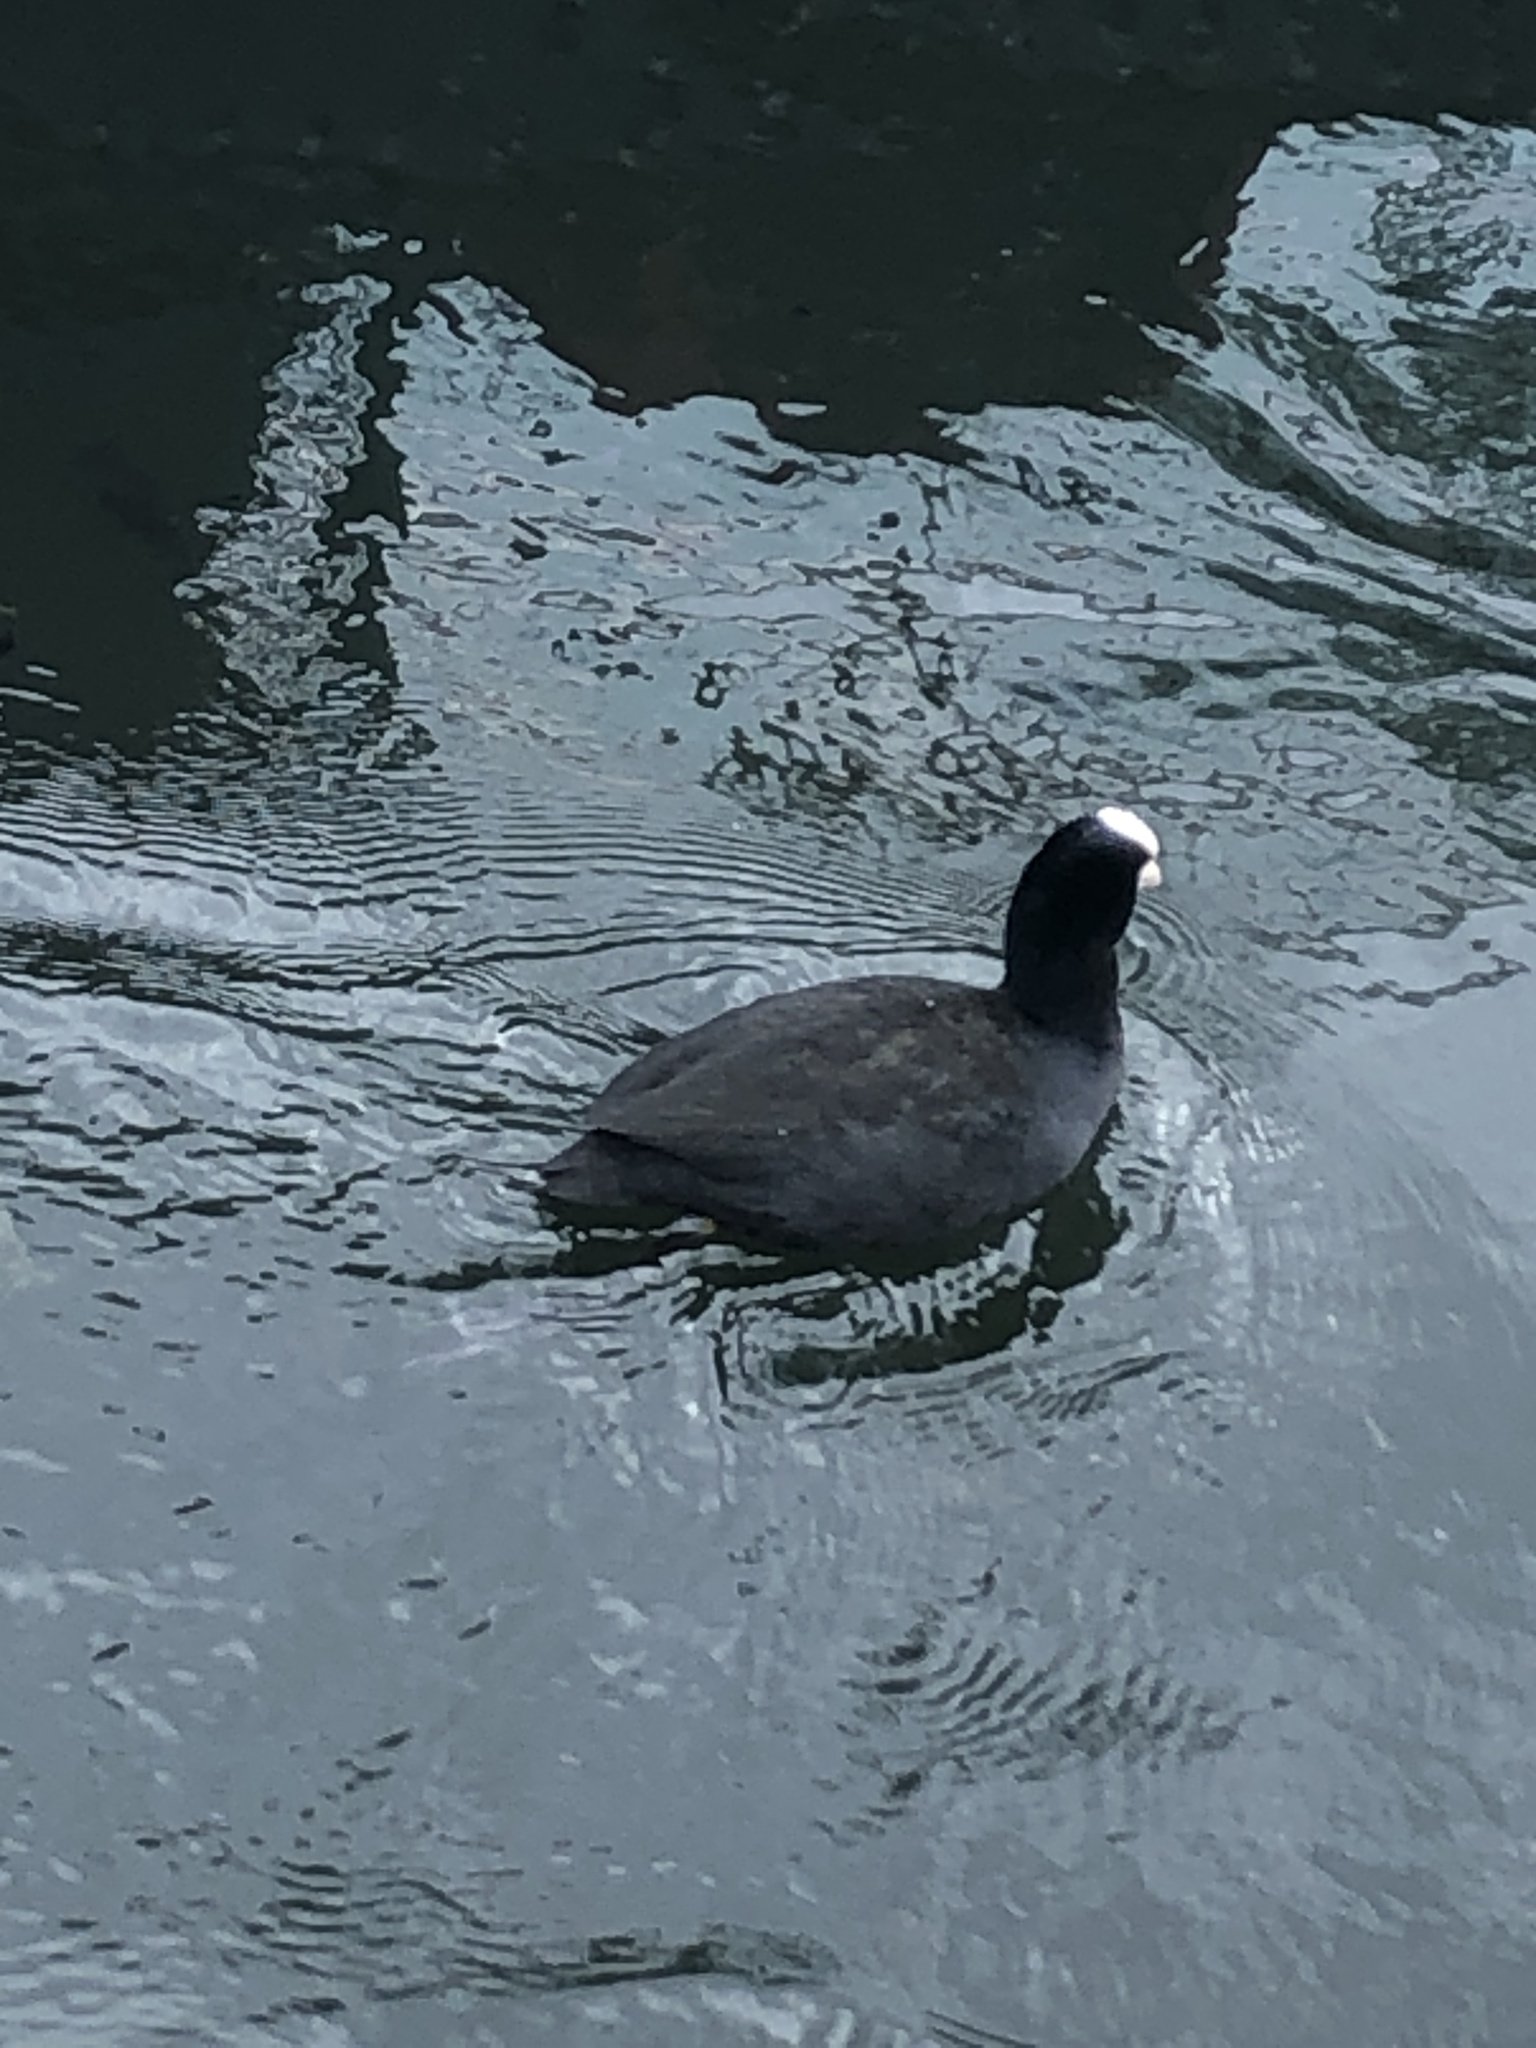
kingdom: Animalia
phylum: Chordata
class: Aves
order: Gruiformes
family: Rallidae
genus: Fulica
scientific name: Fulica atra
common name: Eurasian coot
